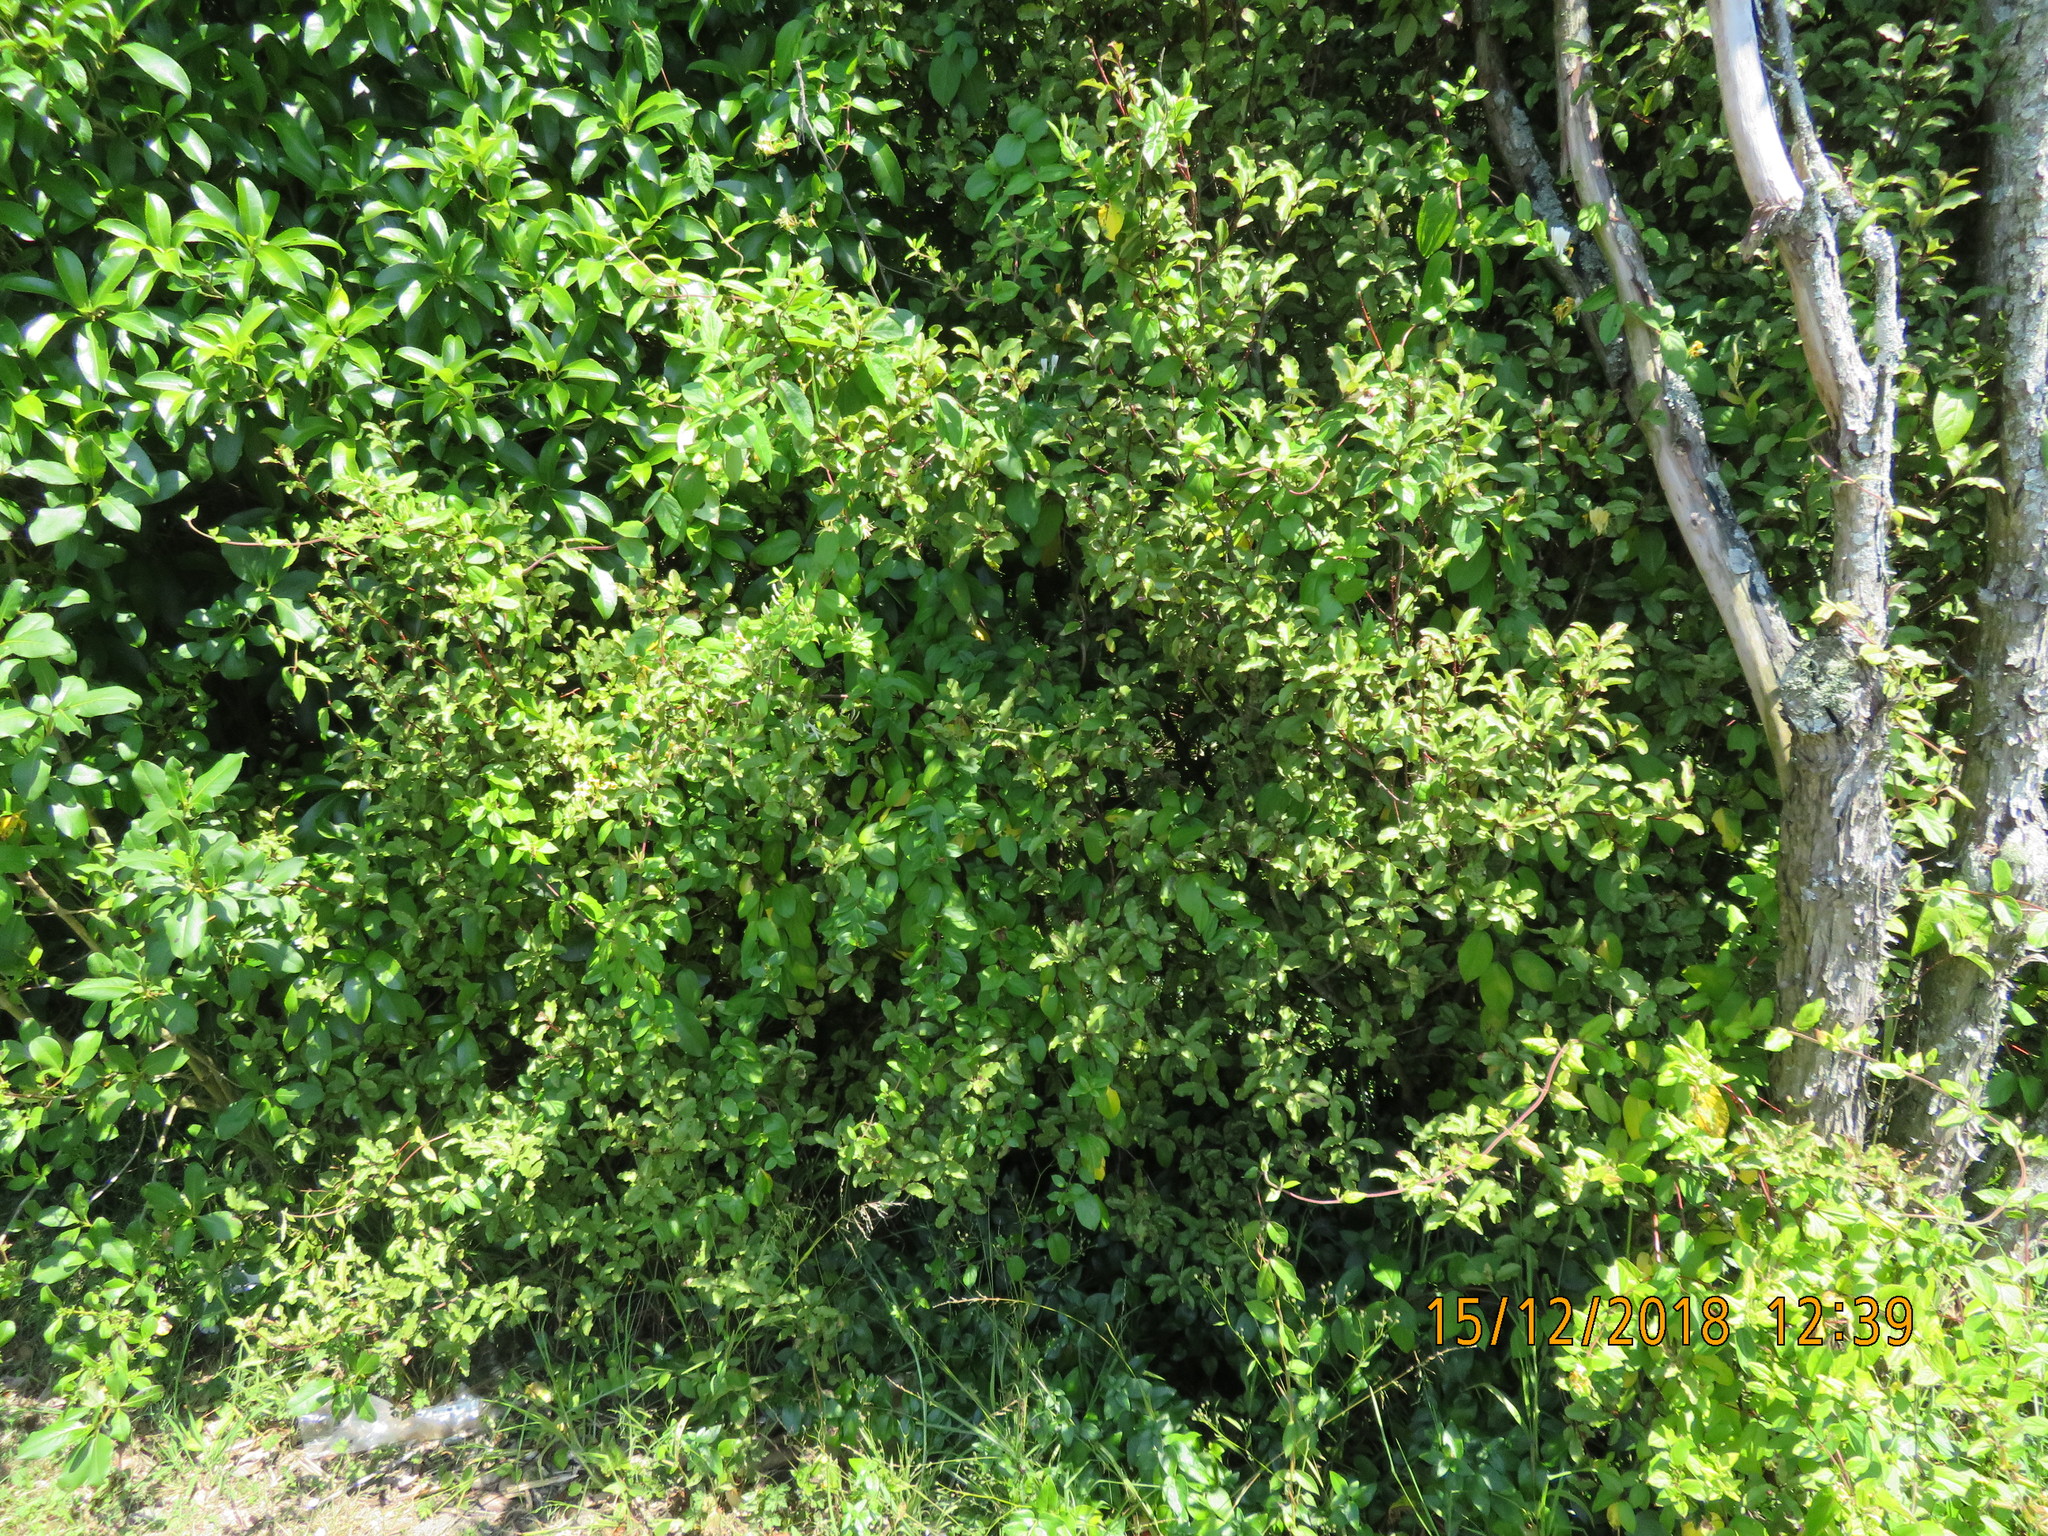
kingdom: Plantae
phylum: Tracheophyta
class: Magnoliopsida
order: Dipsacales
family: Caprifoliaceae
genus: Lonicera
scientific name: Lonicera japonica
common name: Japanese honeysuckle
